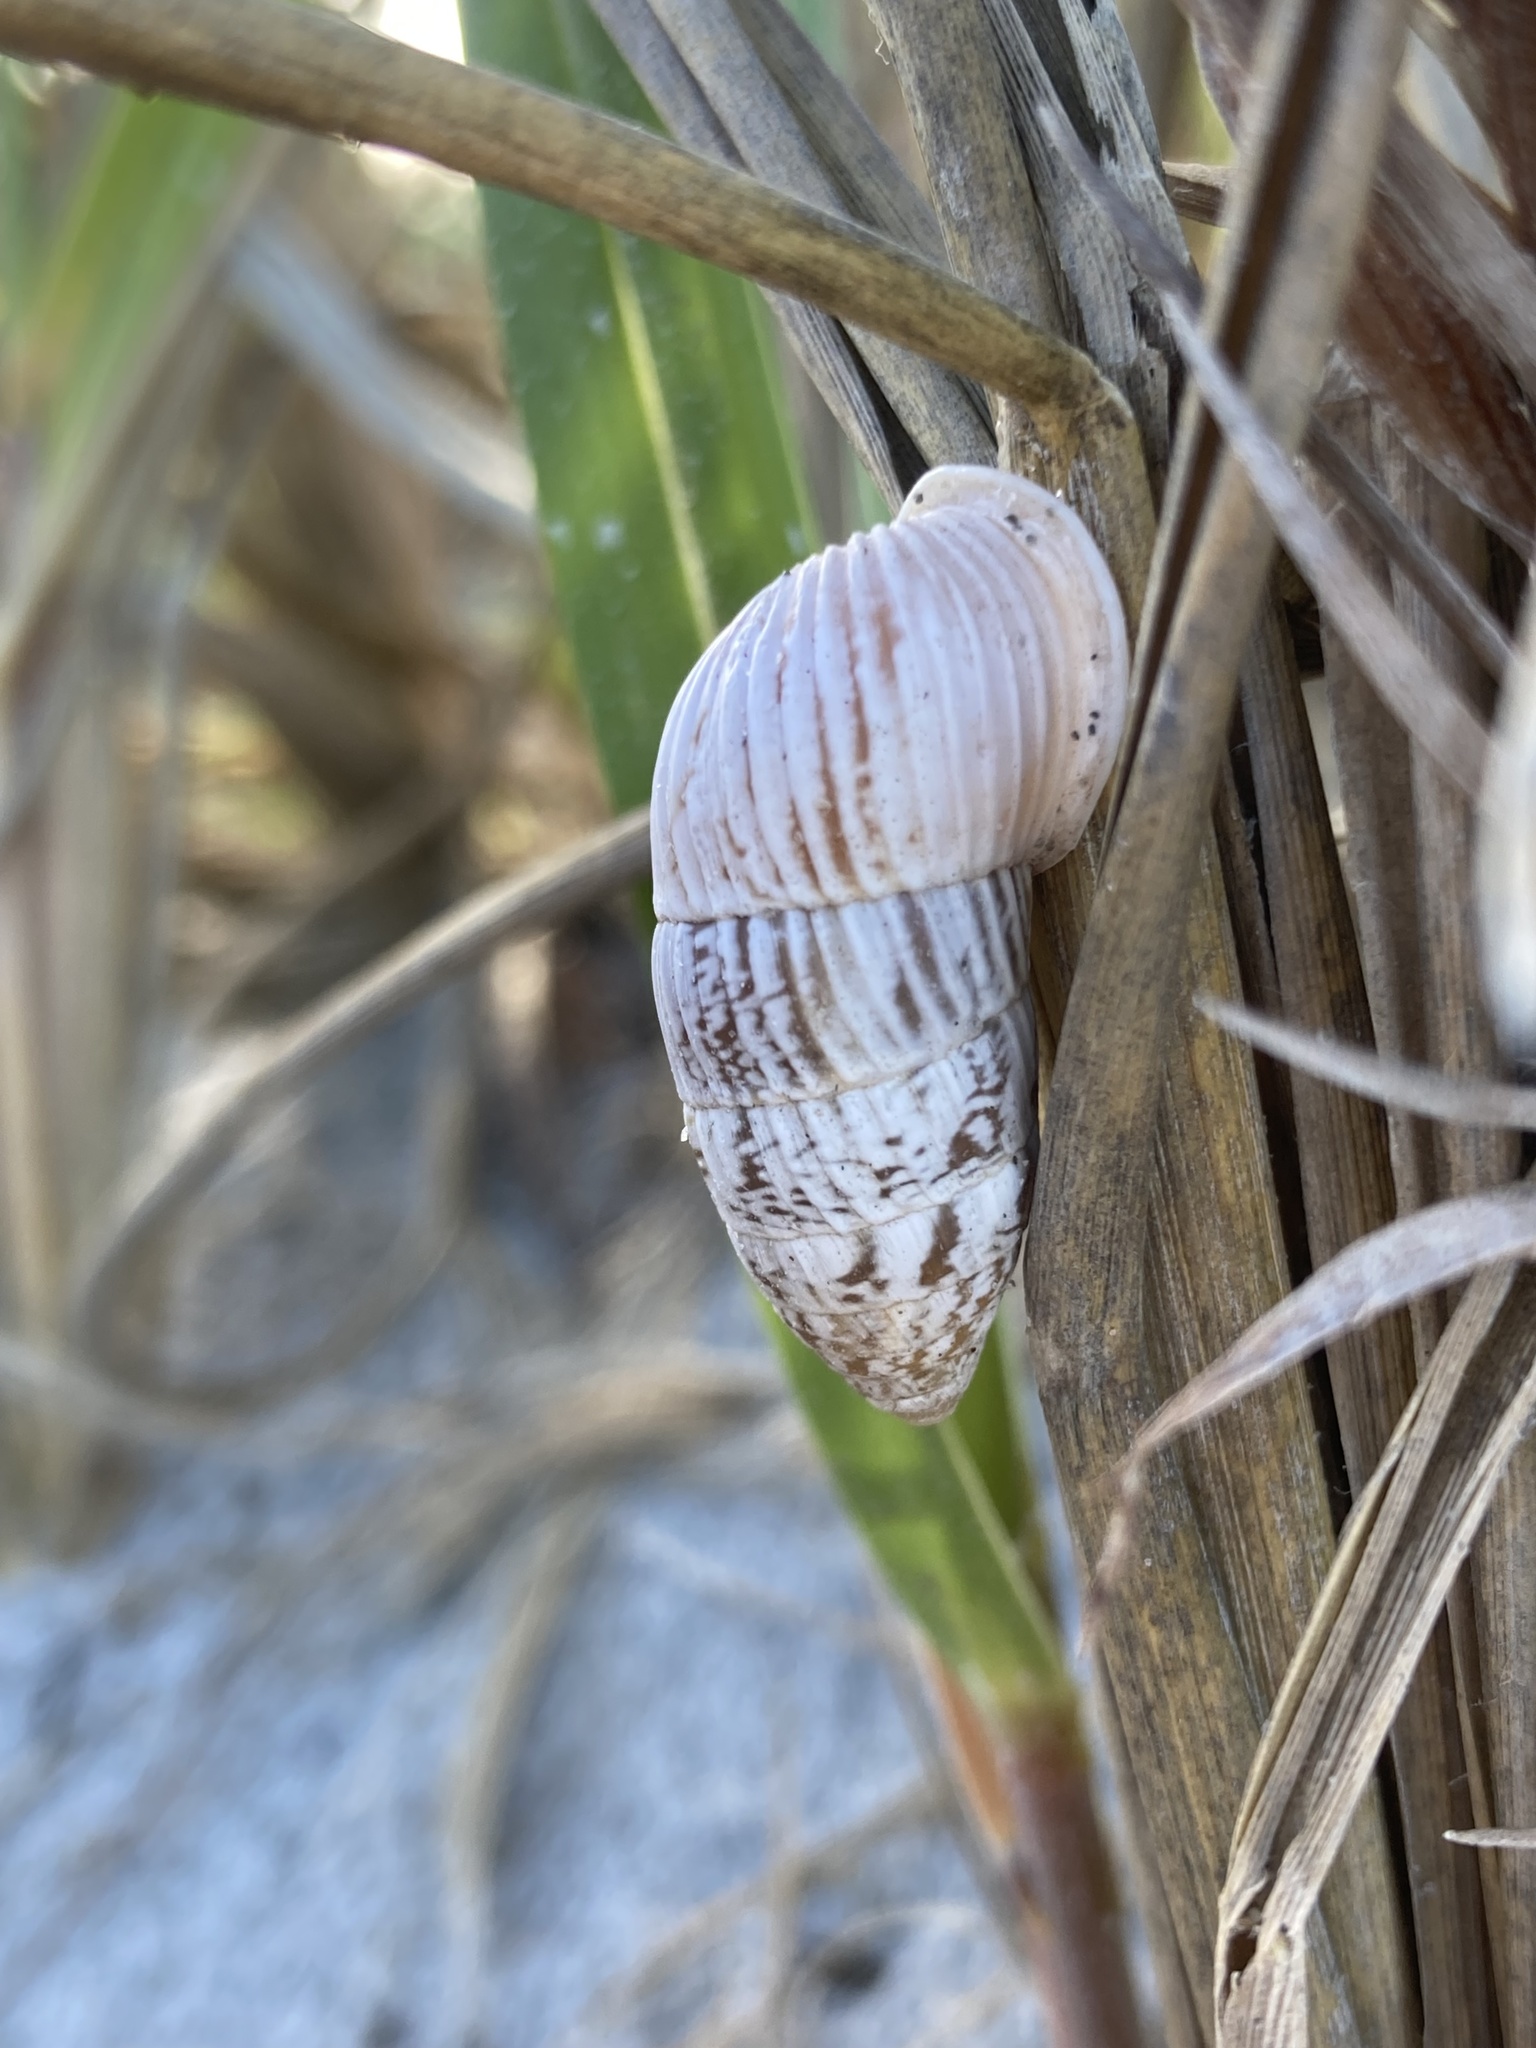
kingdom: Animalia
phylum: Mollusca
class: Gastropoda
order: Stylommatophora
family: Cerionidae
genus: Cerion
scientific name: Cerion tridentatum
